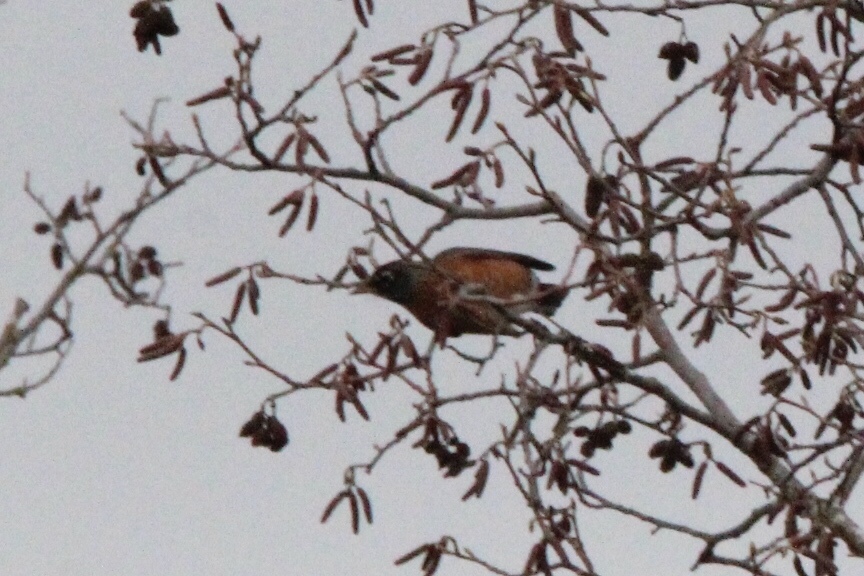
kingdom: Animalia
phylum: Chordata
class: Aves
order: Passeriformes
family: Turdidae
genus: Turdus
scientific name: Turdus migratorius
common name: American robin
